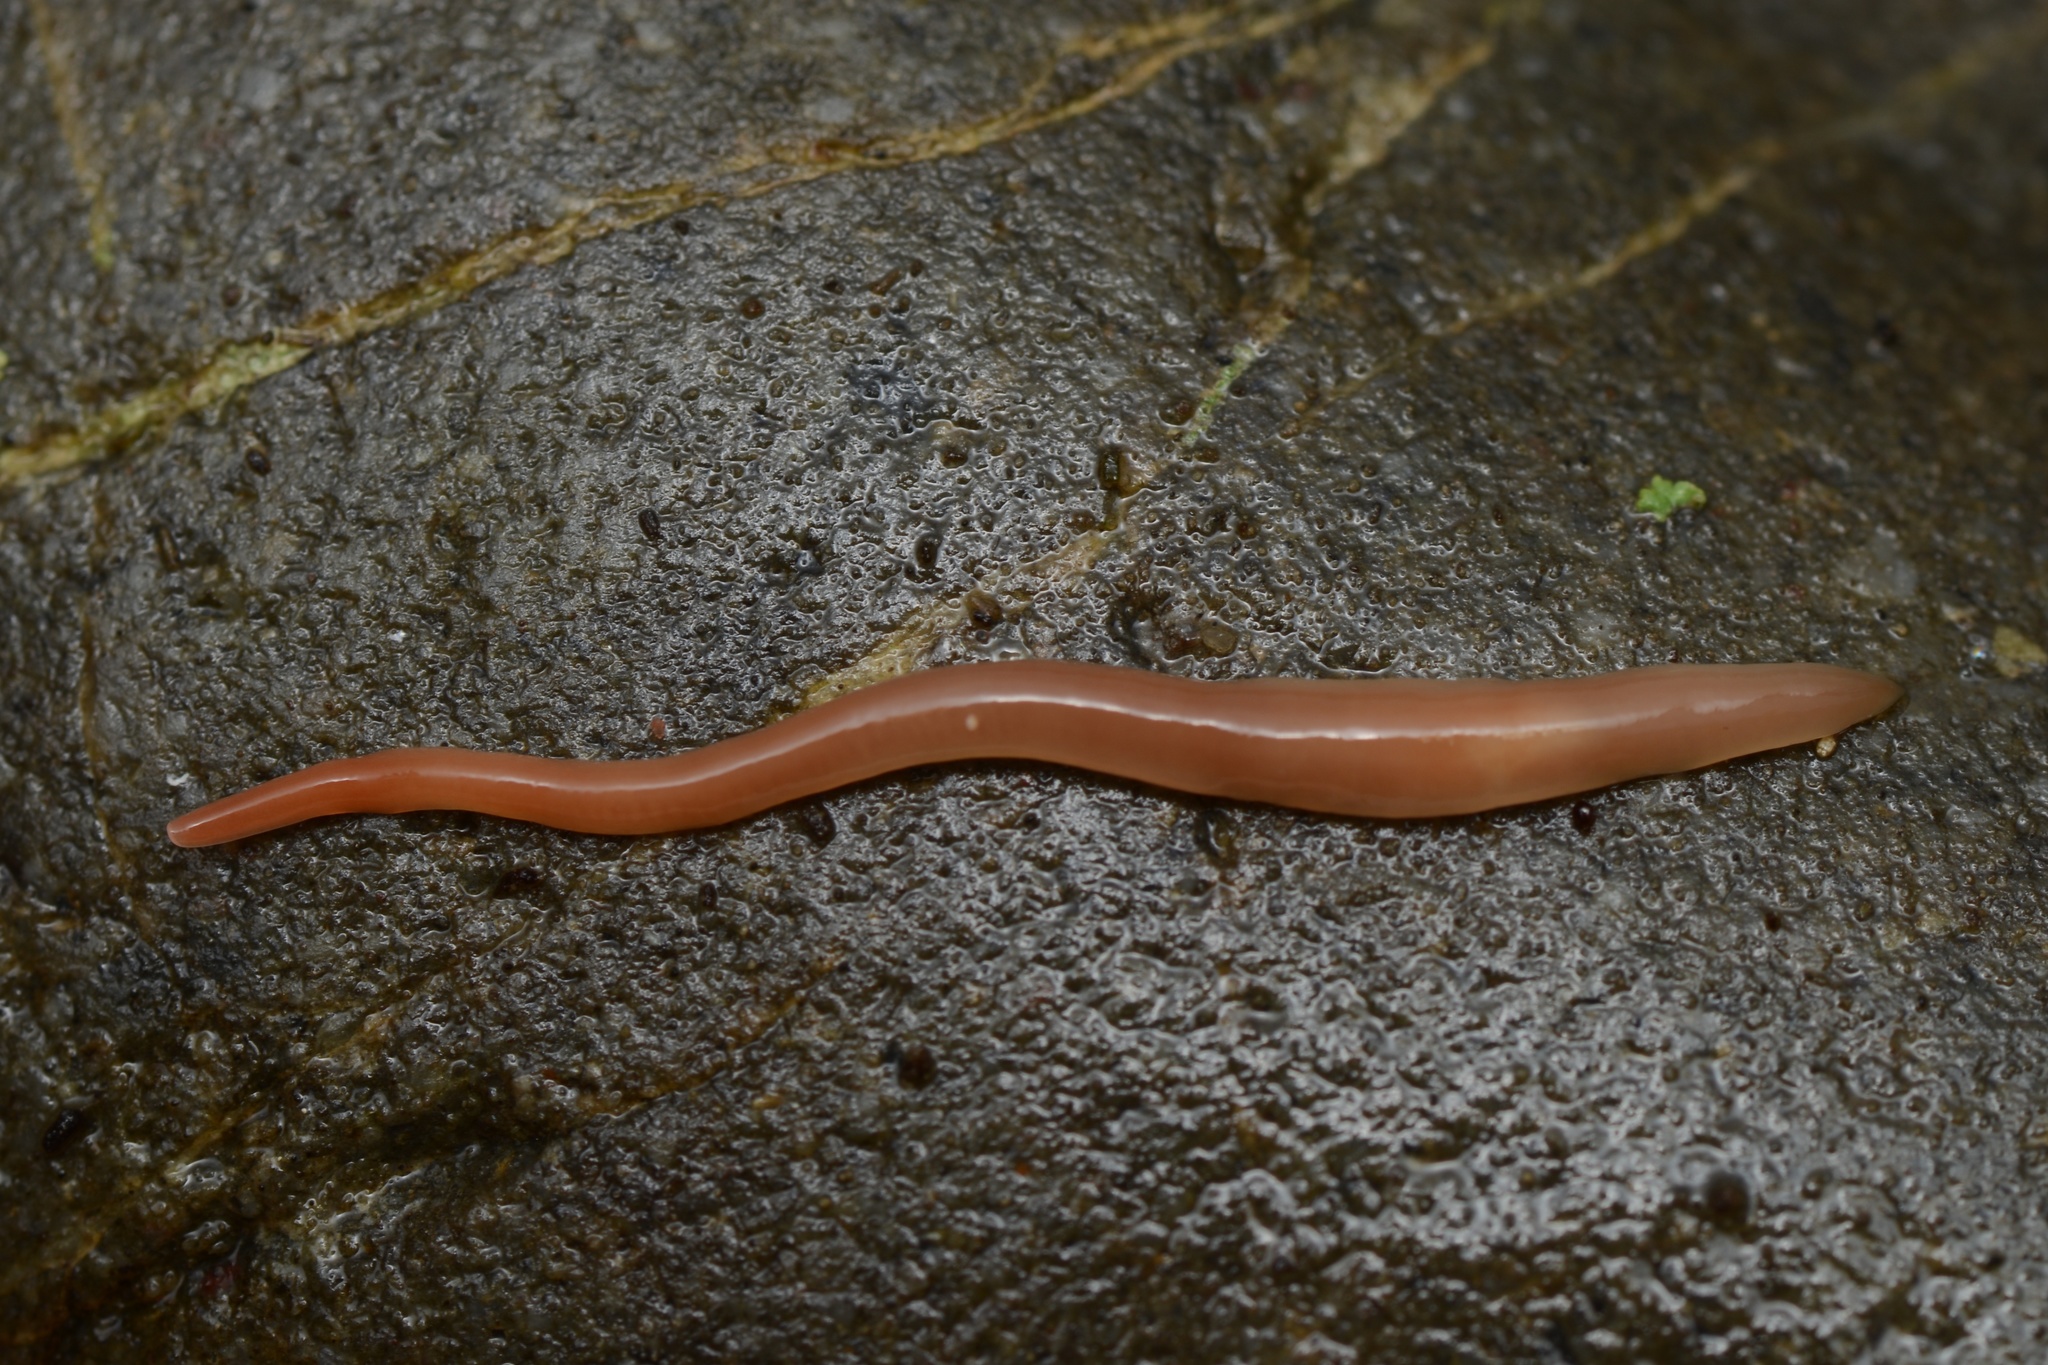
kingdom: Animalia
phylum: Platyhelminthes
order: Tricladida
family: Geoplanidae
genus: Australoplana
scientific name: Australoplana sanguinea
